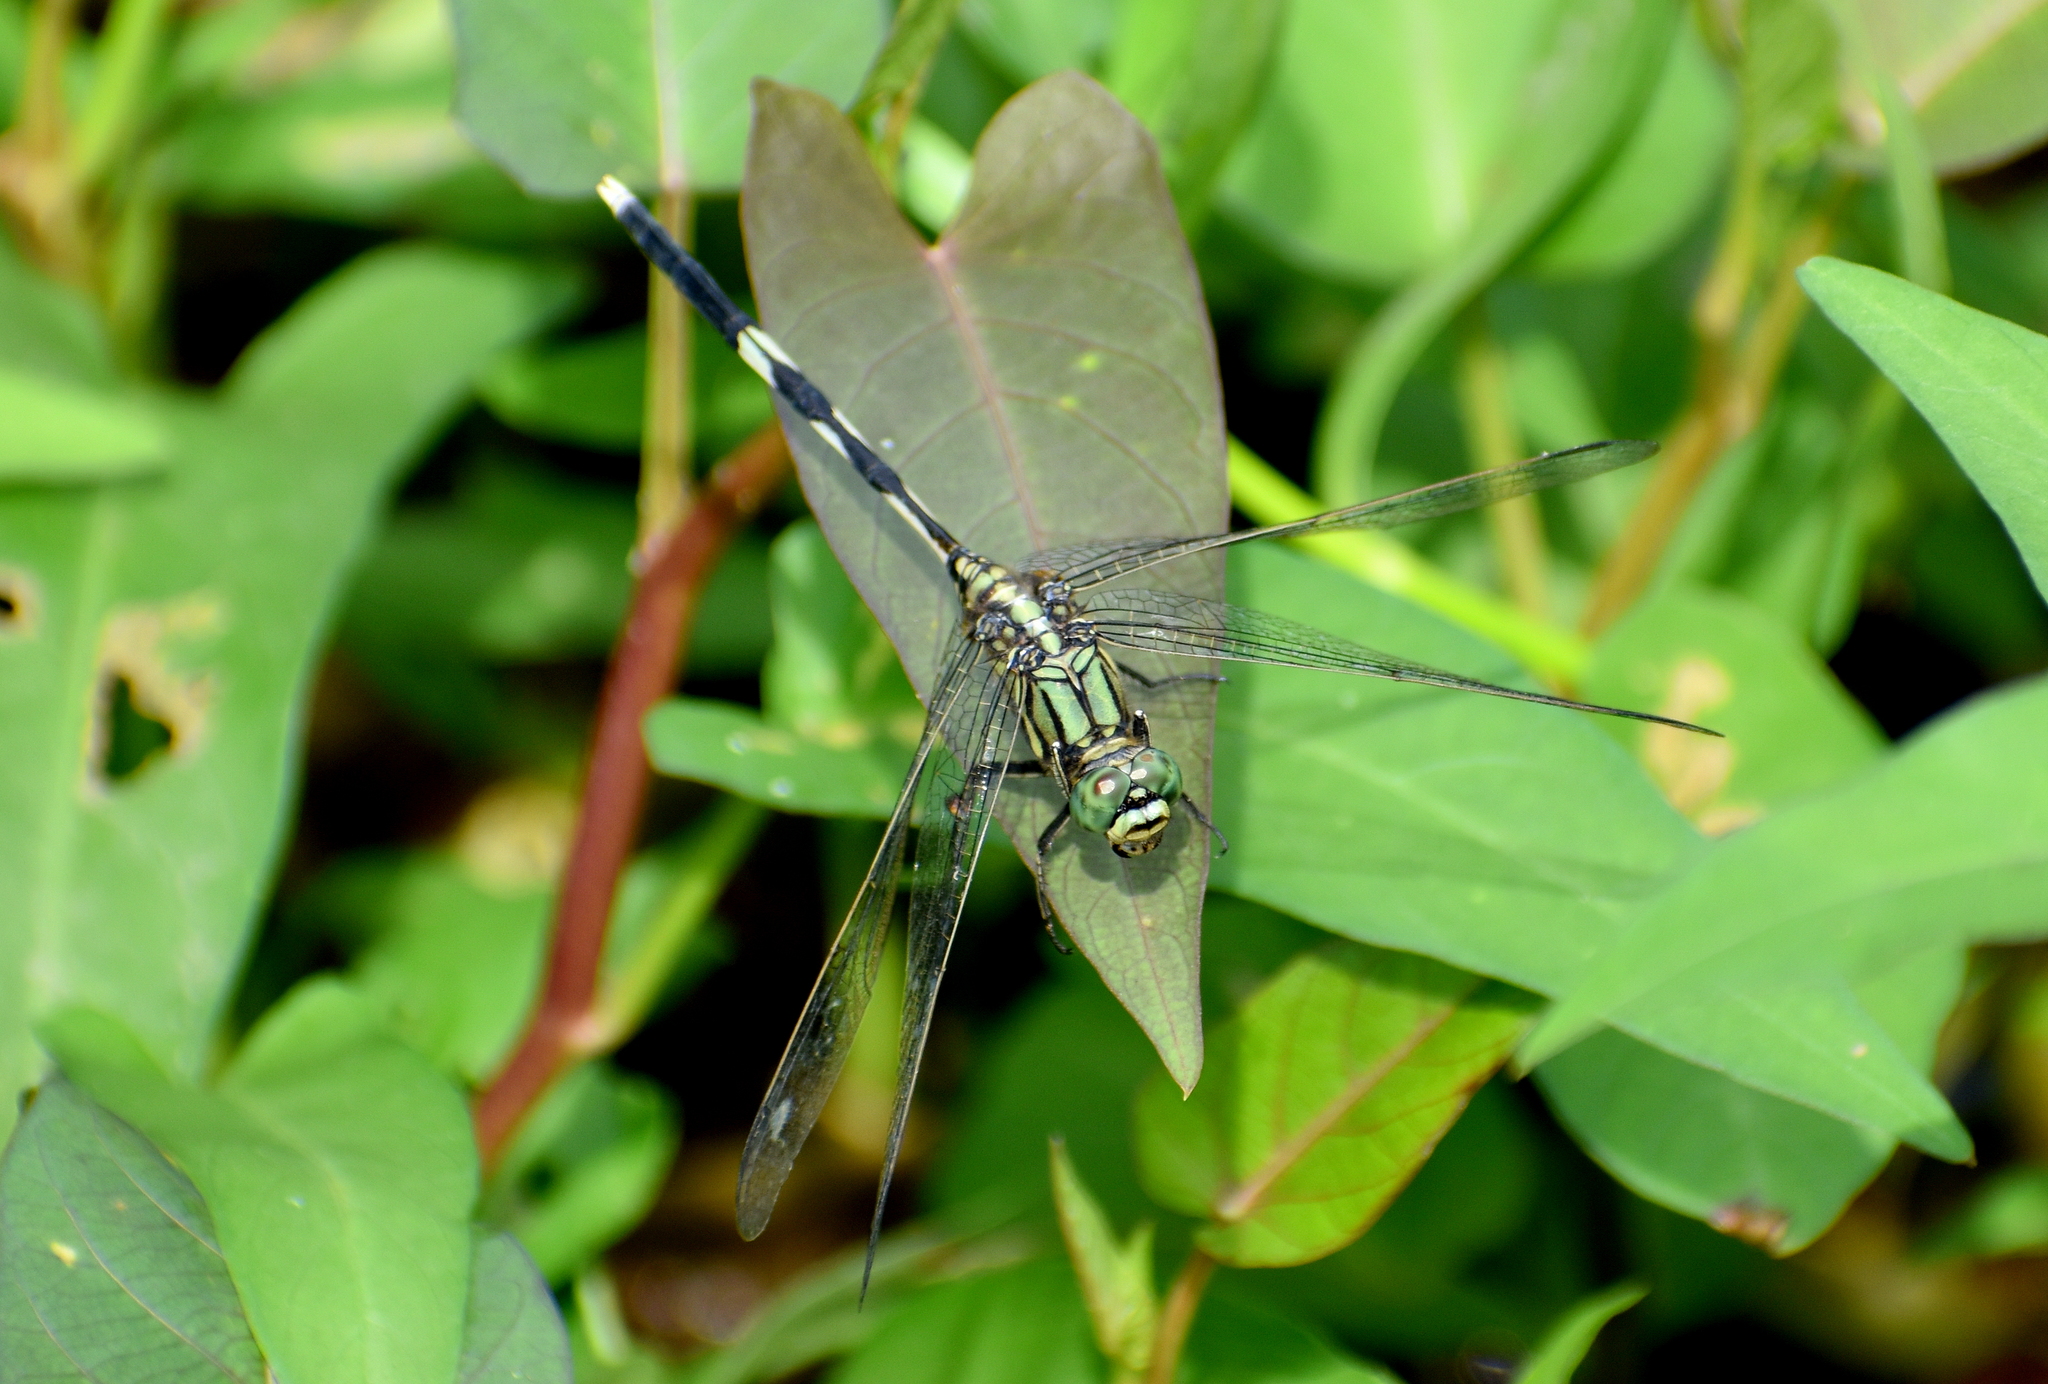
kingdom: Animalia
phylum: Arthropoda
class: Insecta
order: Odonata
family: Libellulidae
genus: Orthetrum
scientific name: Orthetrum sabina
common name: Slender skimmer
